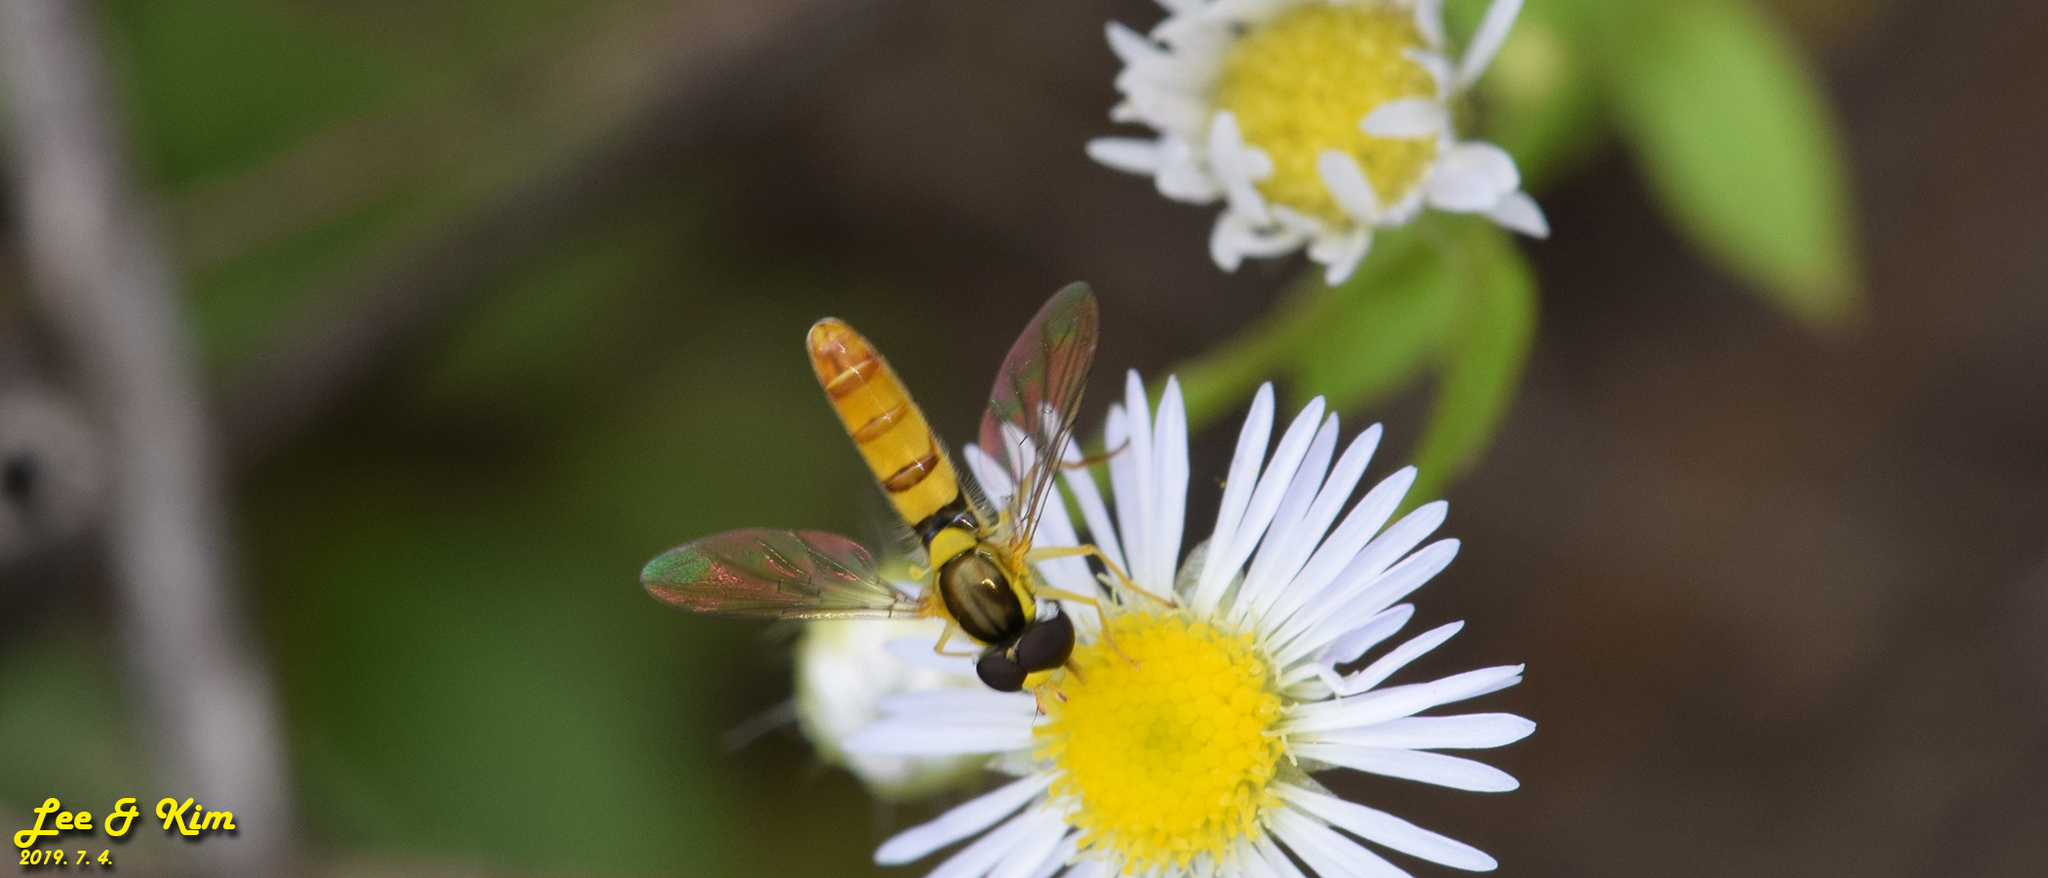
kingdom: Animalia
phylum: Arthropoda
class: Insecta
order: Diptera
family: Syrphidae
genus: Sphaerophoria
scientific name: Sphaerophoria scripta
